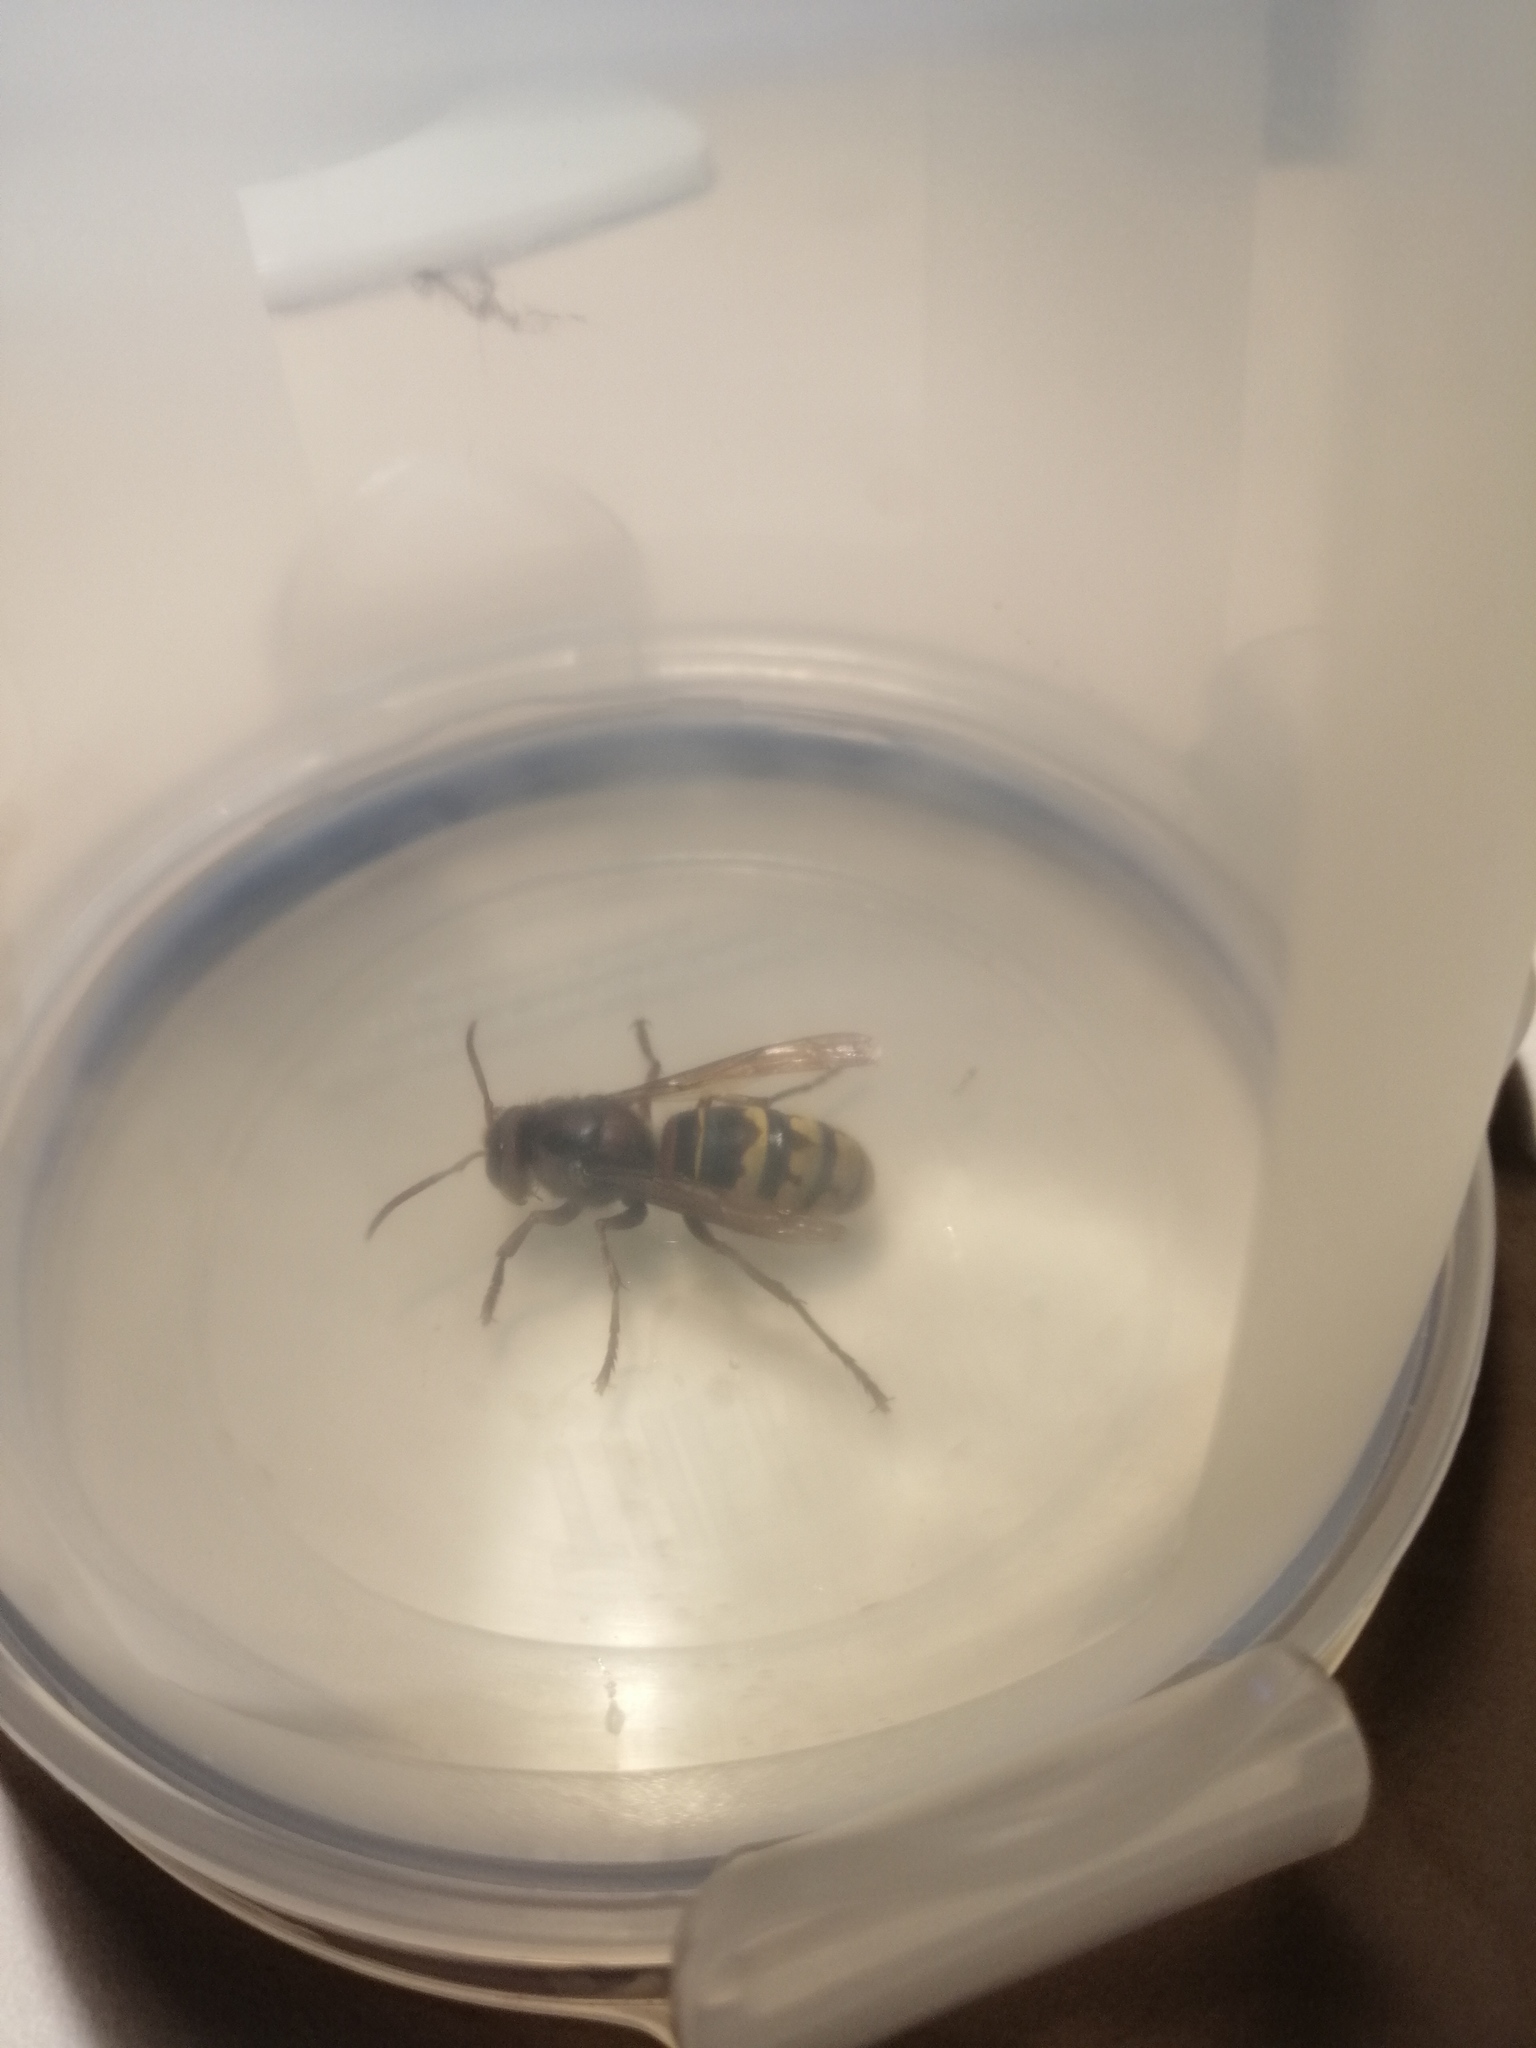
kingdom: Animalia
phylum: Arthropoda
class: Insecta
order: Hymenoptera
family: Vespidae
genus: Vespa
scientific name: Vespa crabro
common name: Hornet
